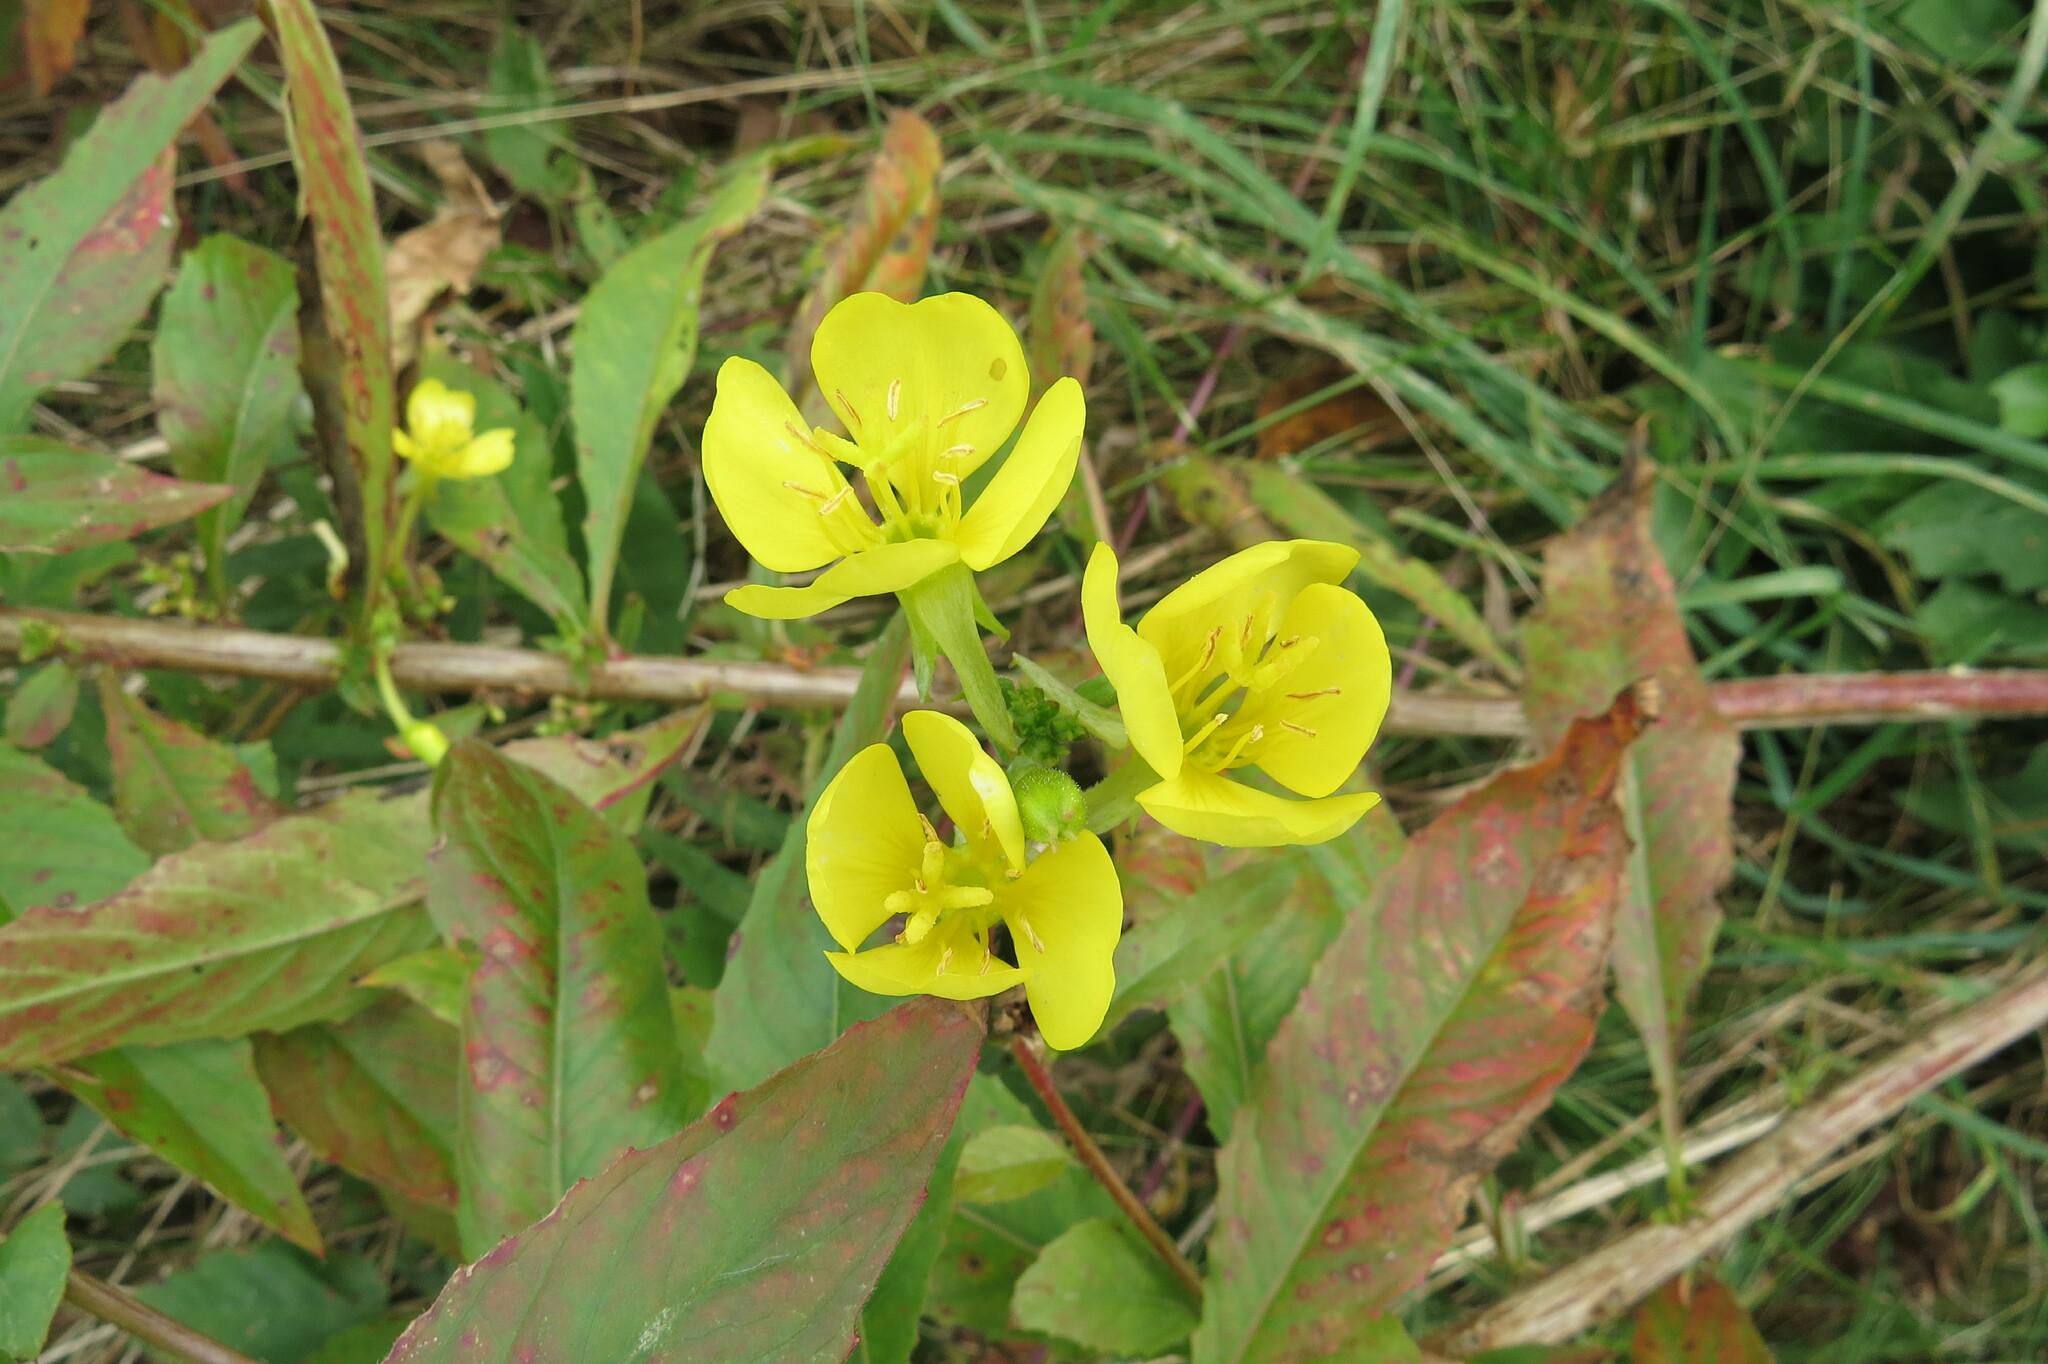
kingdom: Plantae
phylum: Tracheophyta
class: Magnoliopsida
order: Myrtales
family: Onagraceae
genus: Oenothera
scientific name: Oenothera biennis
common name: Common evening-primrose
